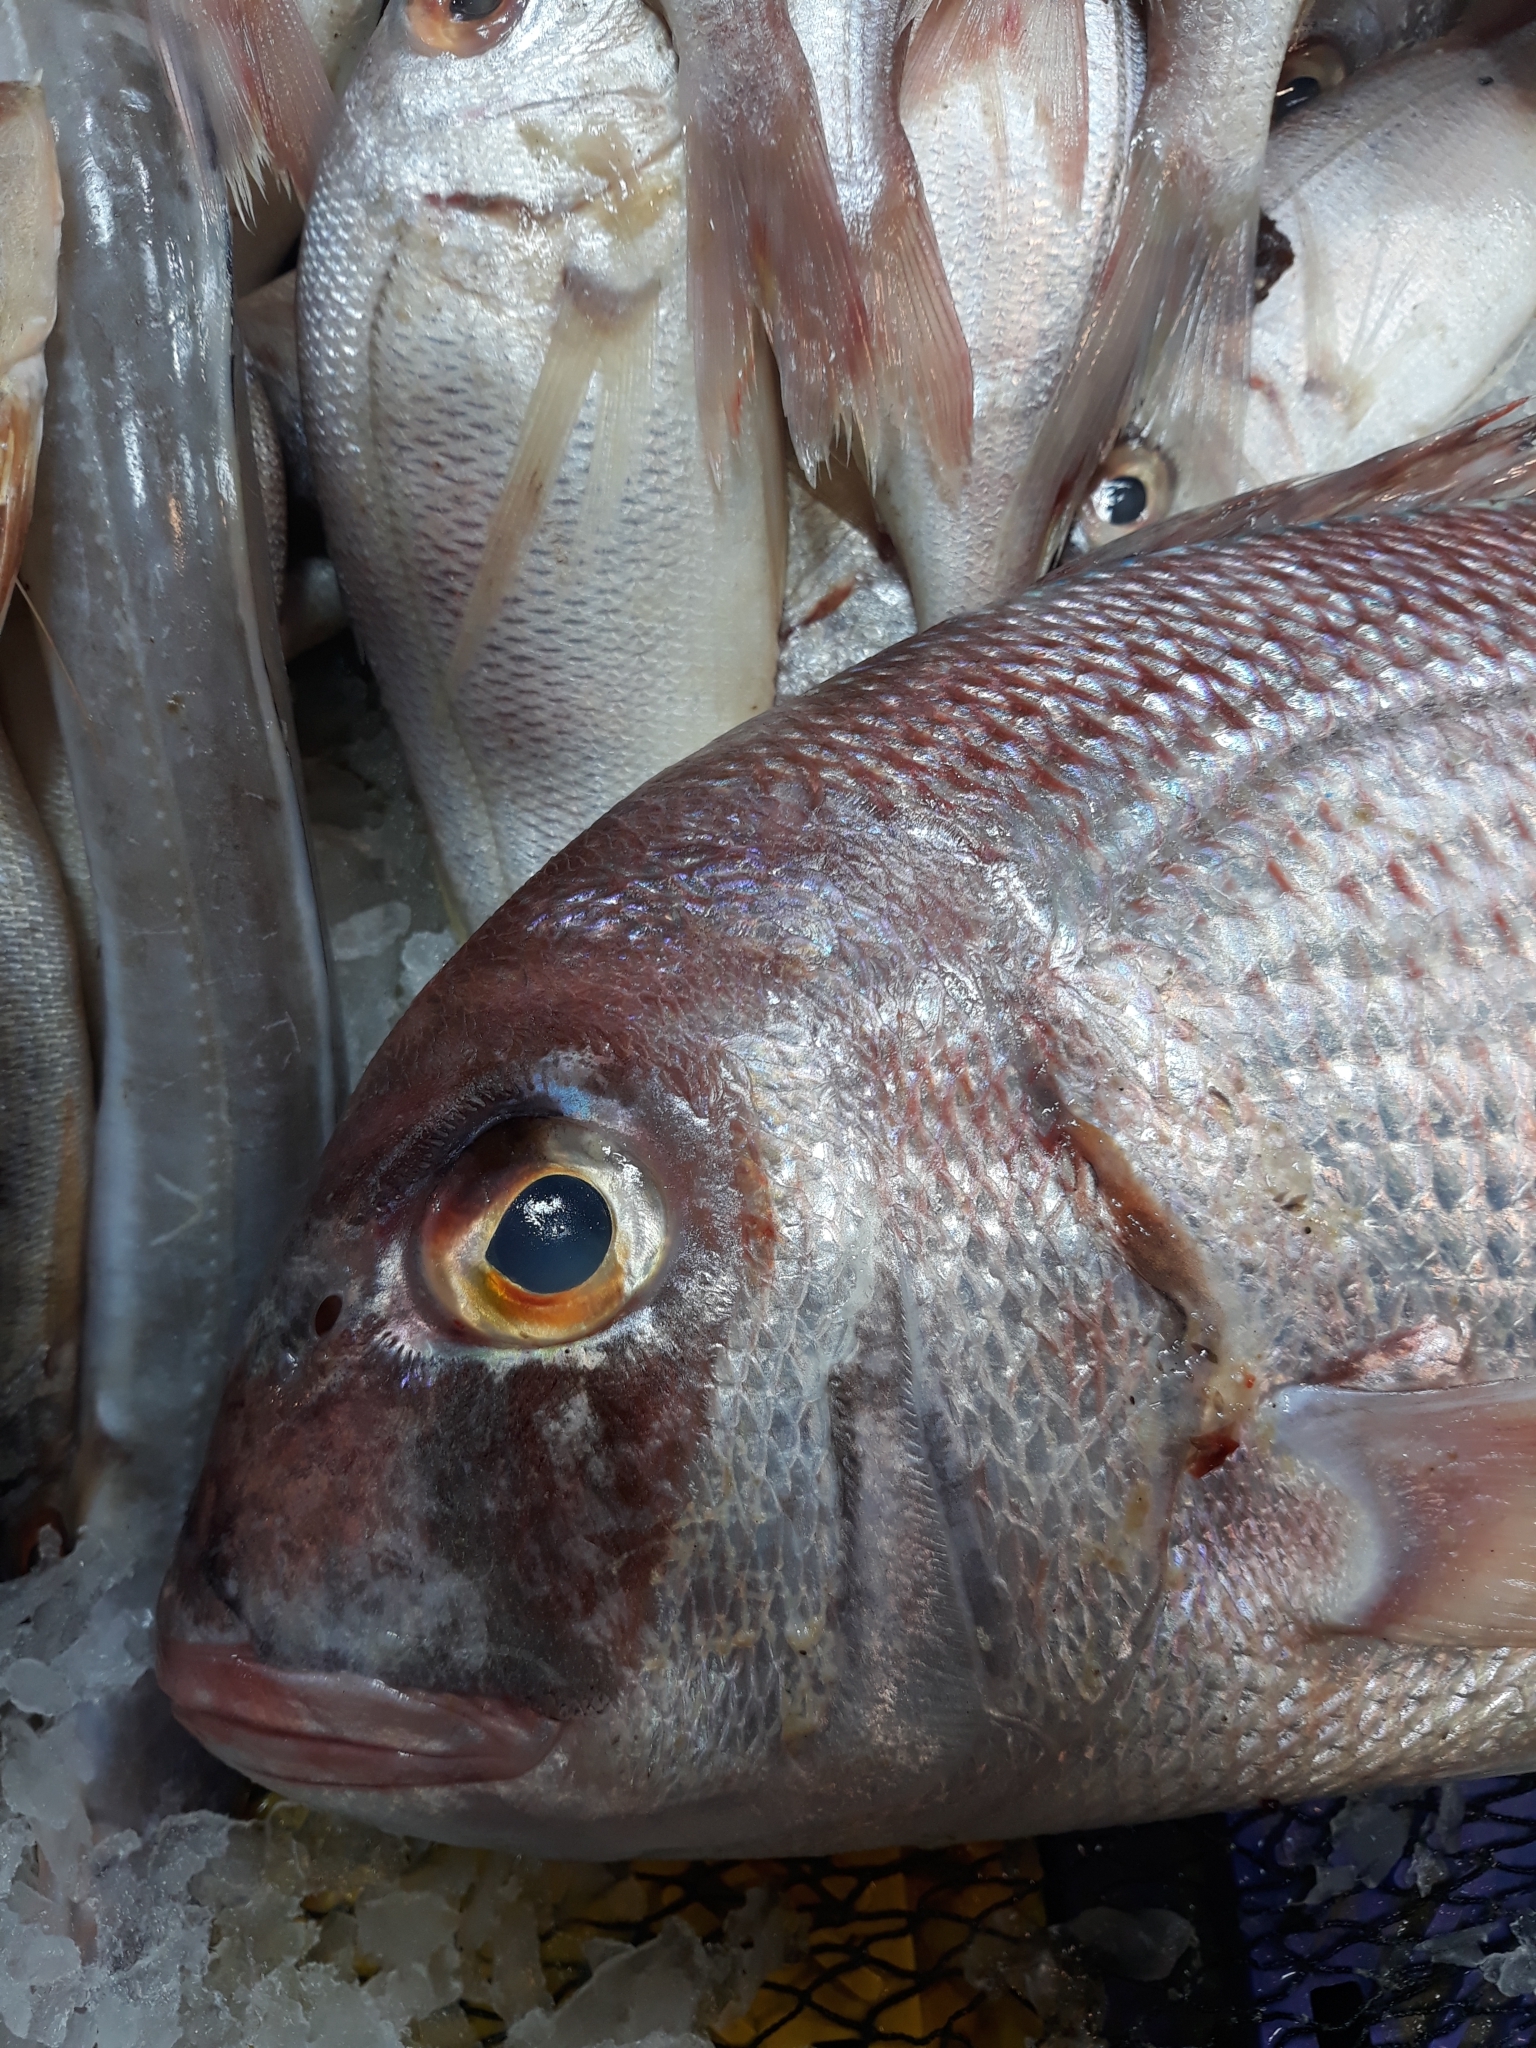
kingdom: Animalia
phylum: Chordata
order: Perciformes
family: Sparidae
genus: Pagrus
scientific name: Pagrus pagrus
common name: Red porgy
